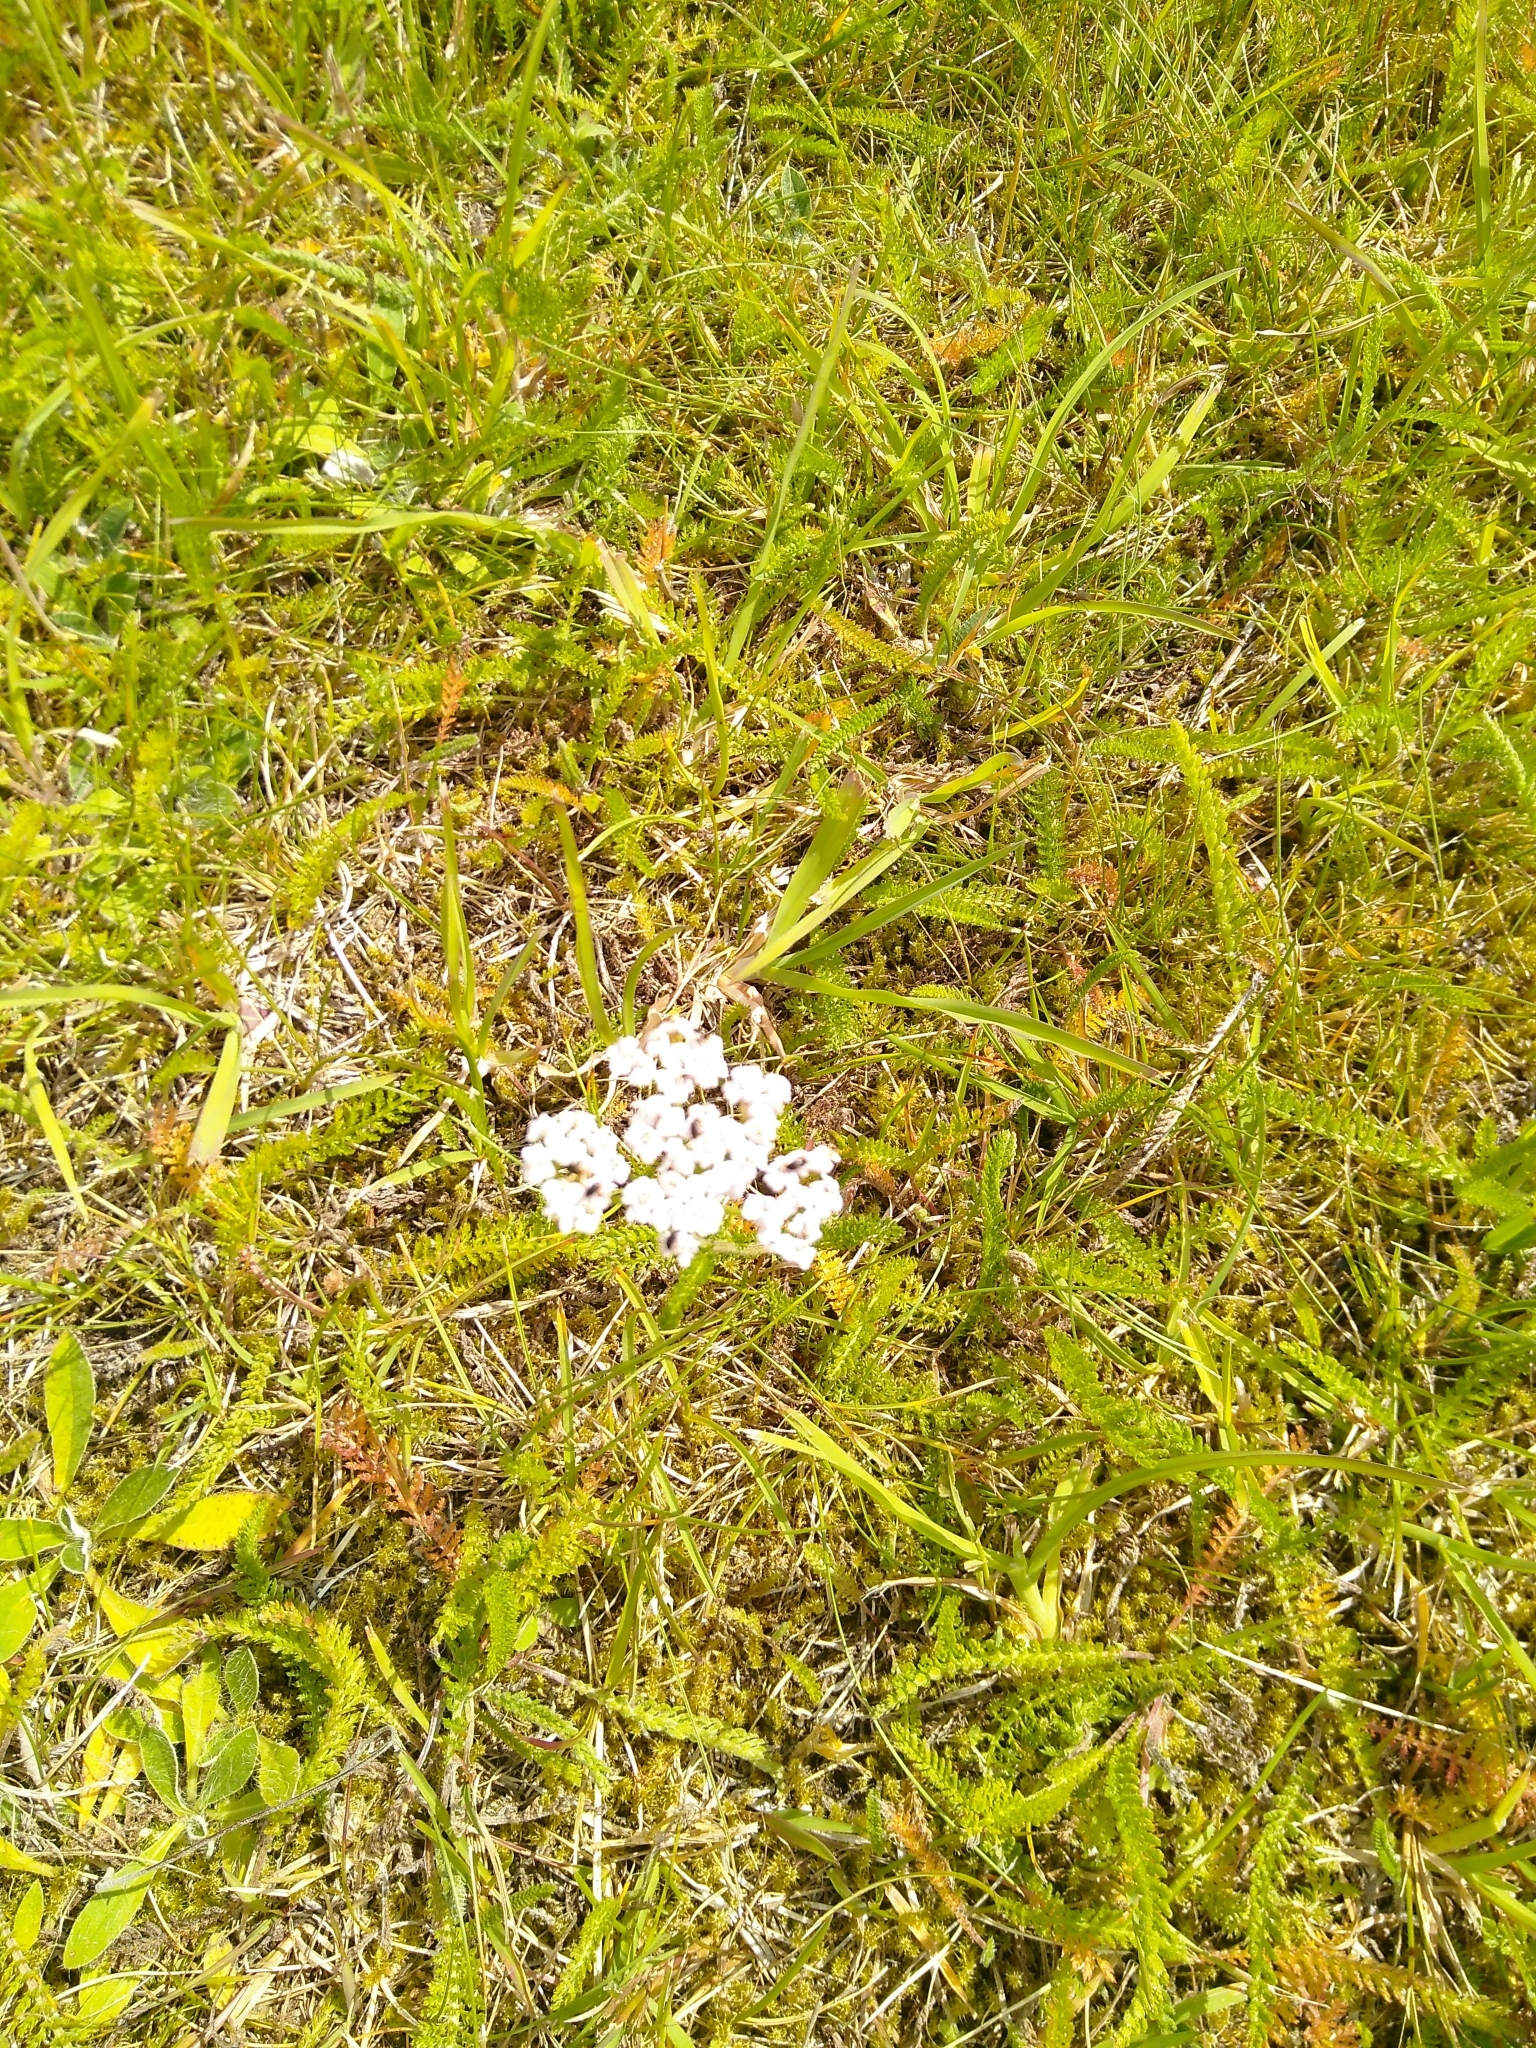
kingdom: Plantae
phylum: Tracheophyta
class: Magnoliopsida
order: Asterales
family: Asteraceae
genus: Achillea
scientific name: Achillea millefolium
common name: Yarrow
